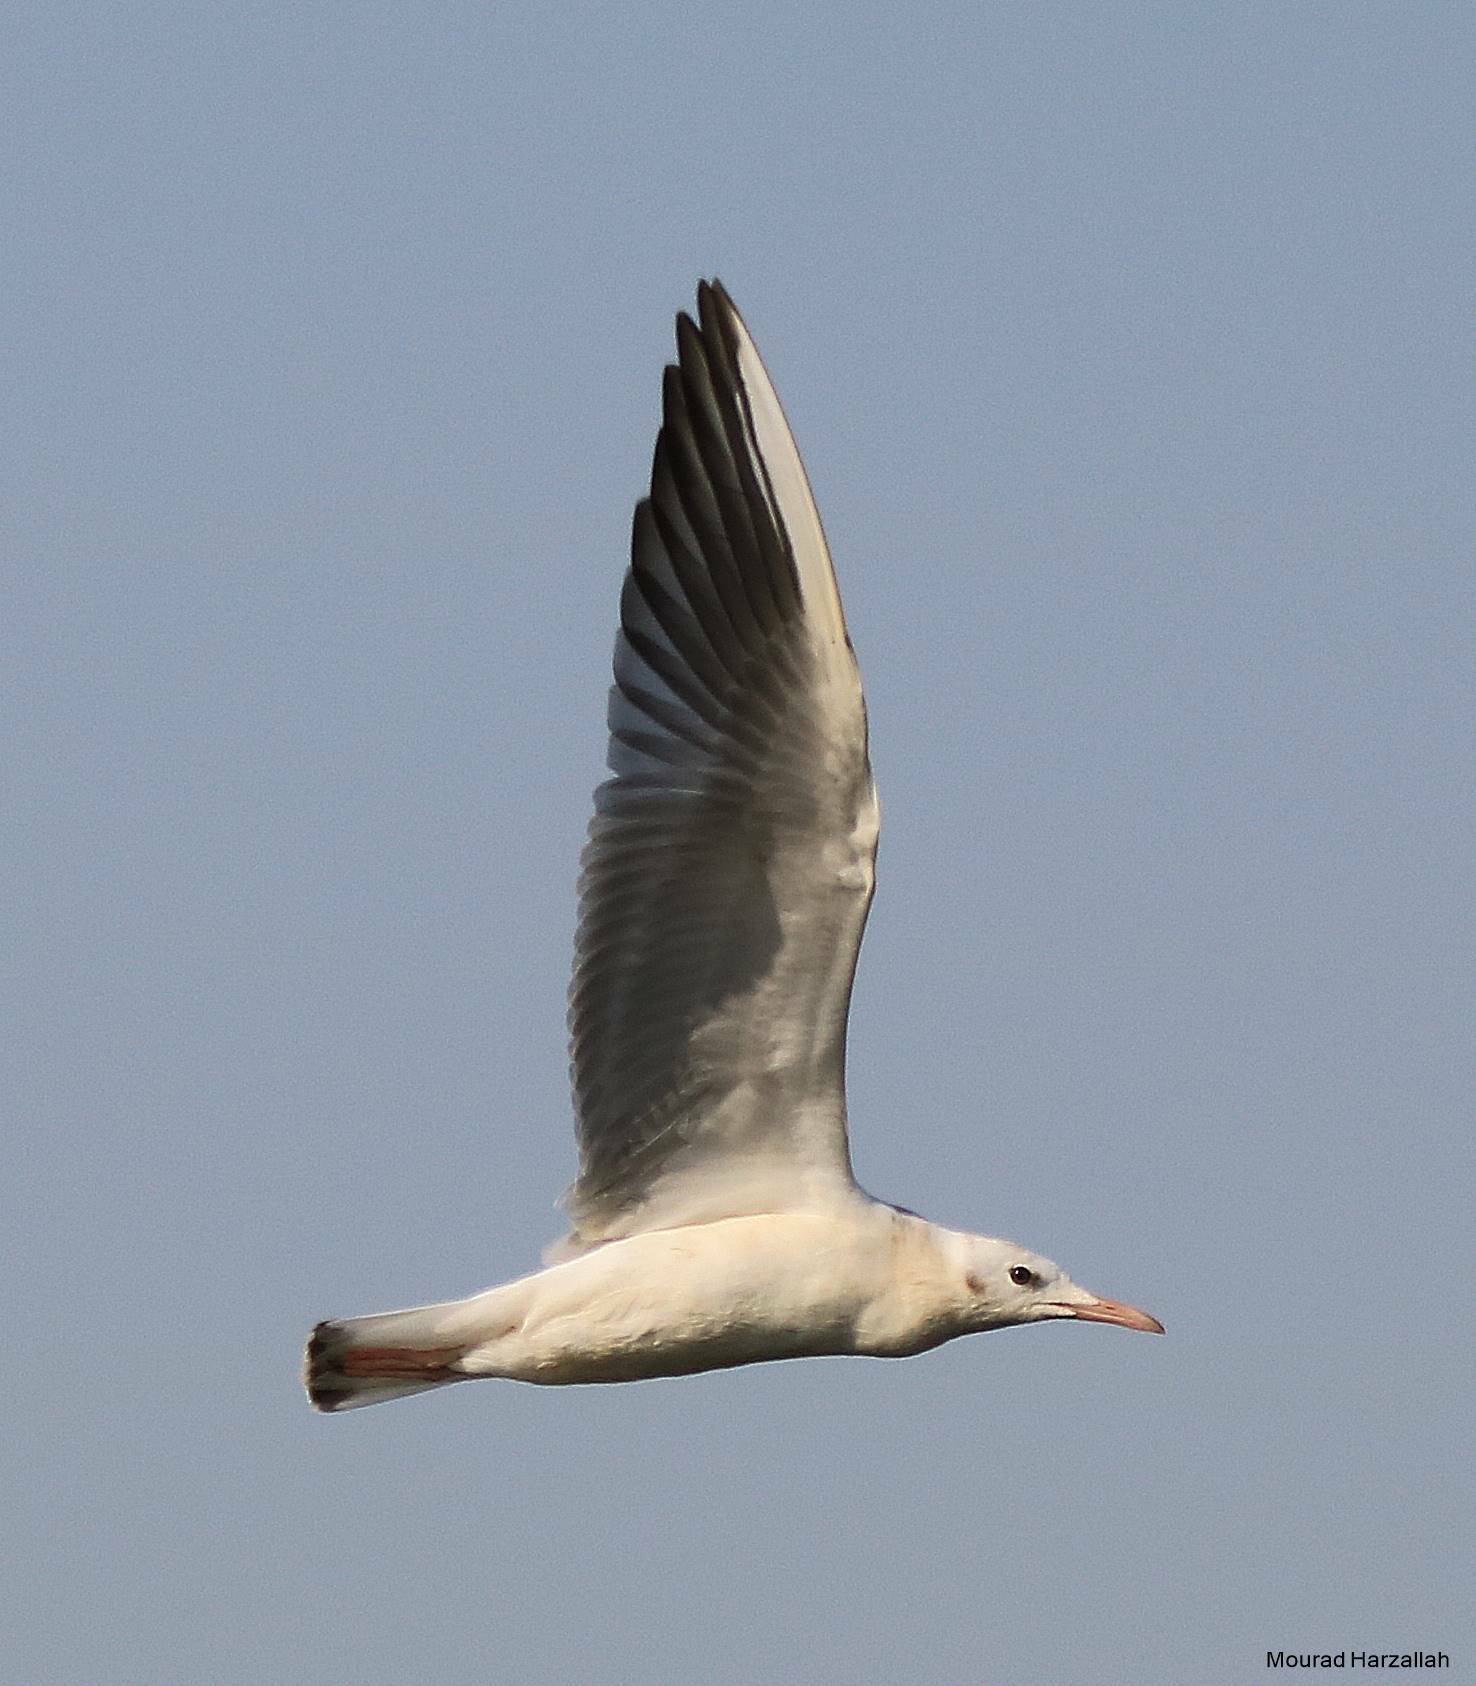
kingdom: Animalia
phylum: Chordata
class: Aves
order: Charadriiformes
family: Laridae
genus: Chroicocephalus
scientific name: Chroicocephalus genei
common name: Slender-billed gull
